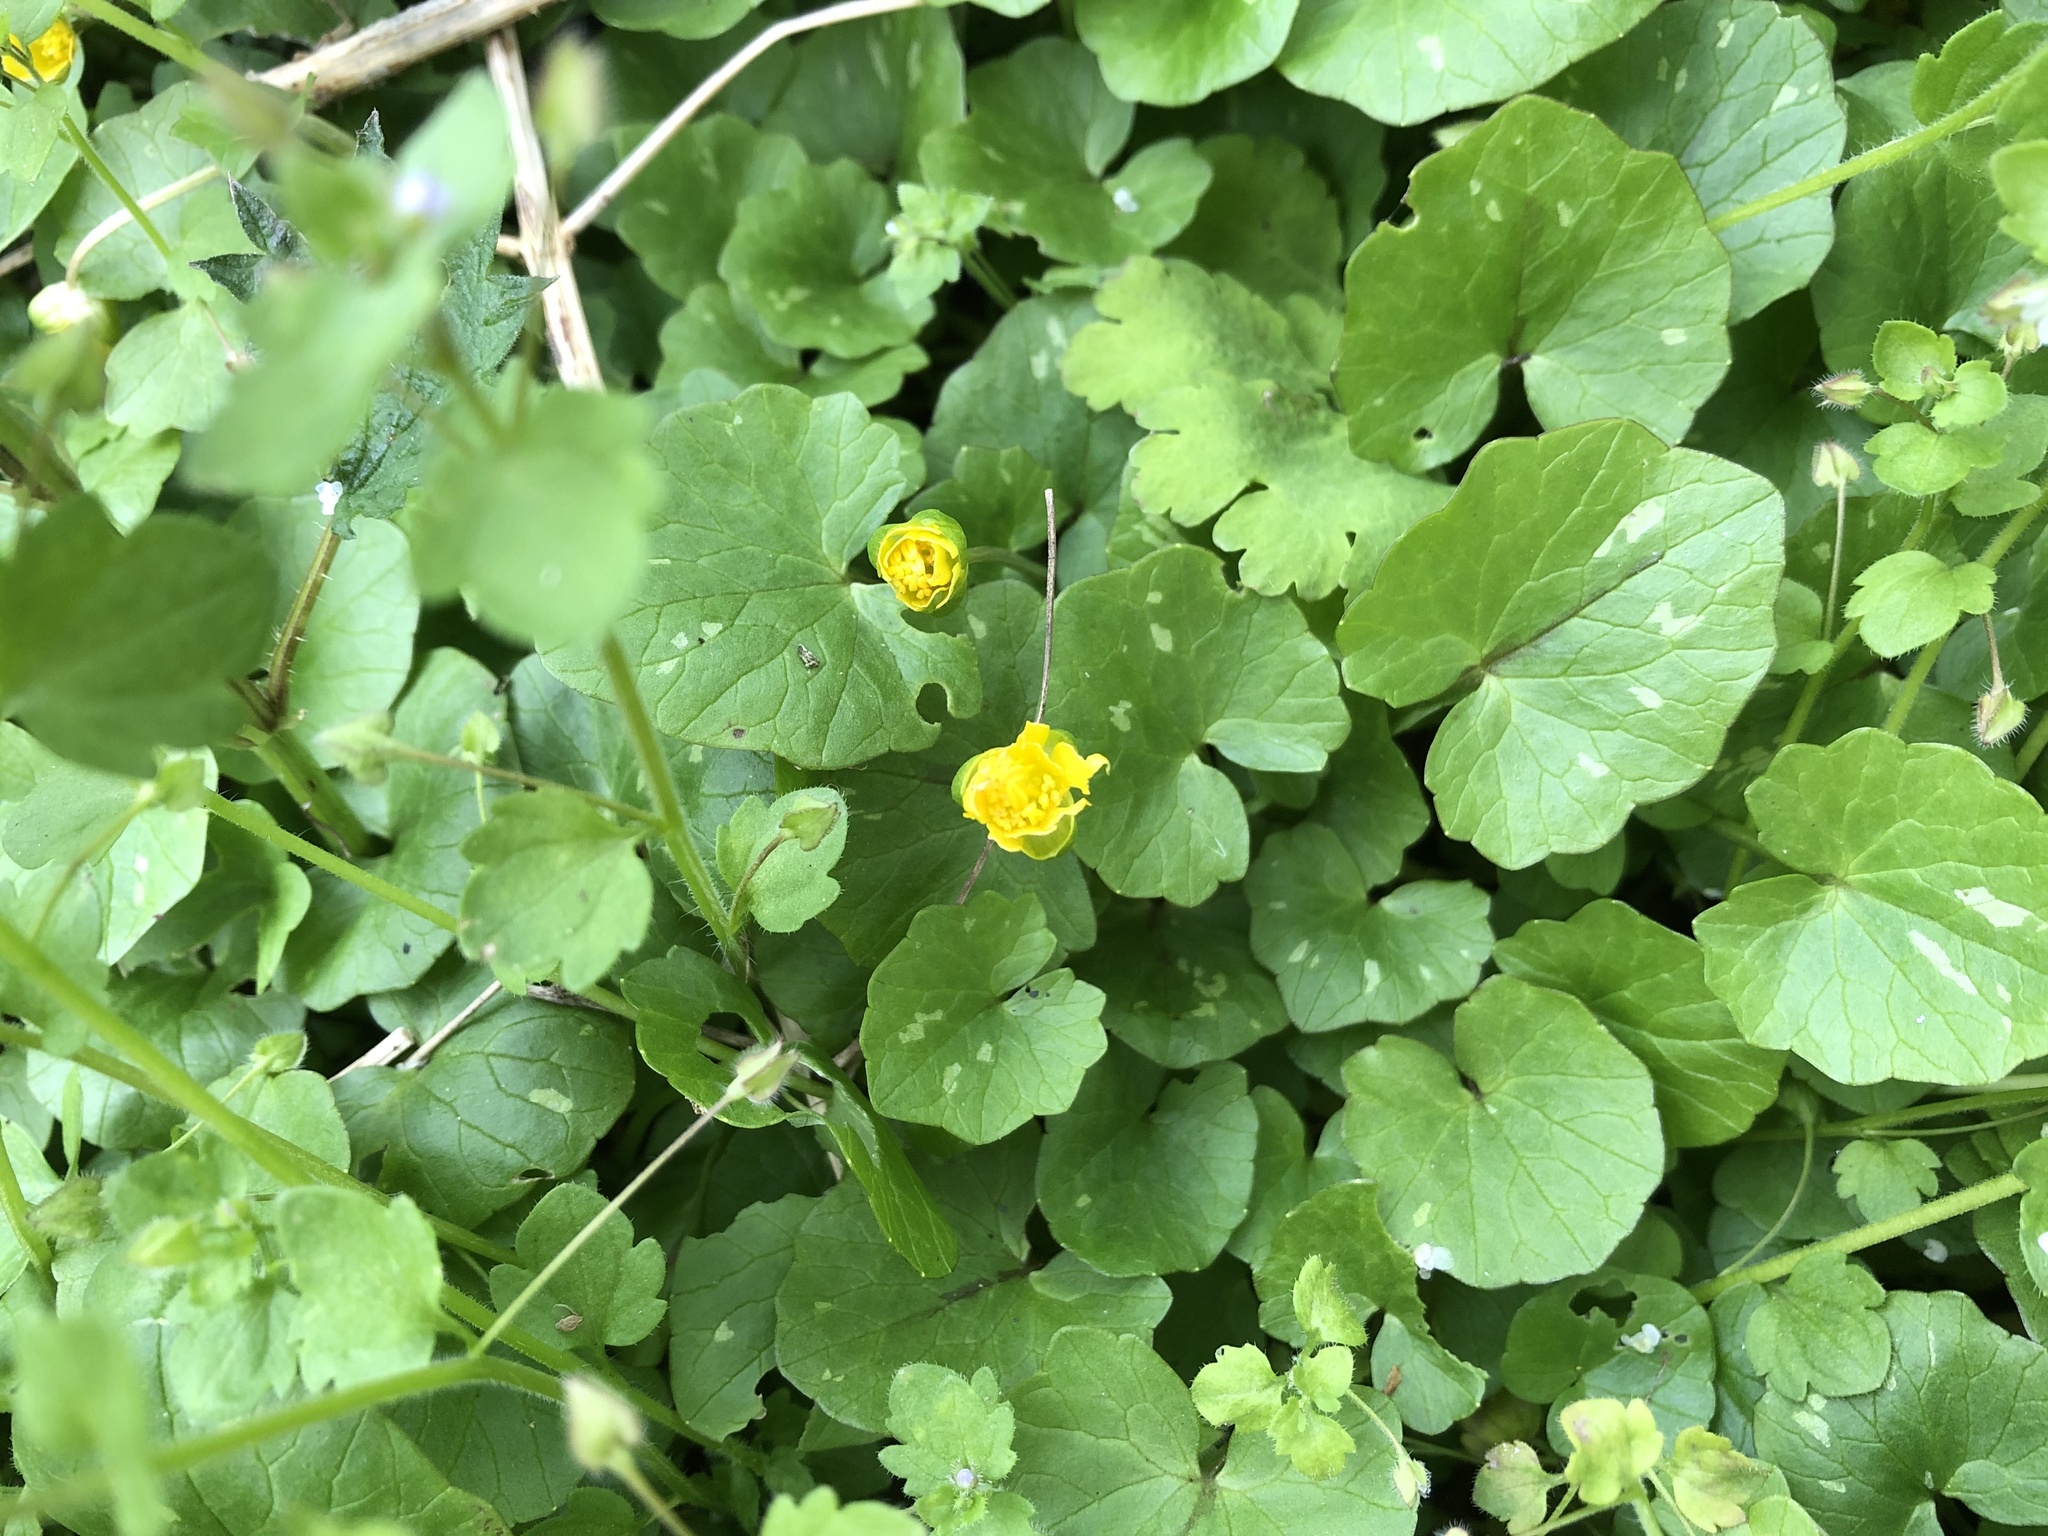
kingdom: Plantae
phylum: Tracheophyta
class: Magnoliopsida
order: Ranunculales
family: Ranunculaceae
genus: Ficaria
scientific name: Ficaria verna
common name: Lesser celandine
